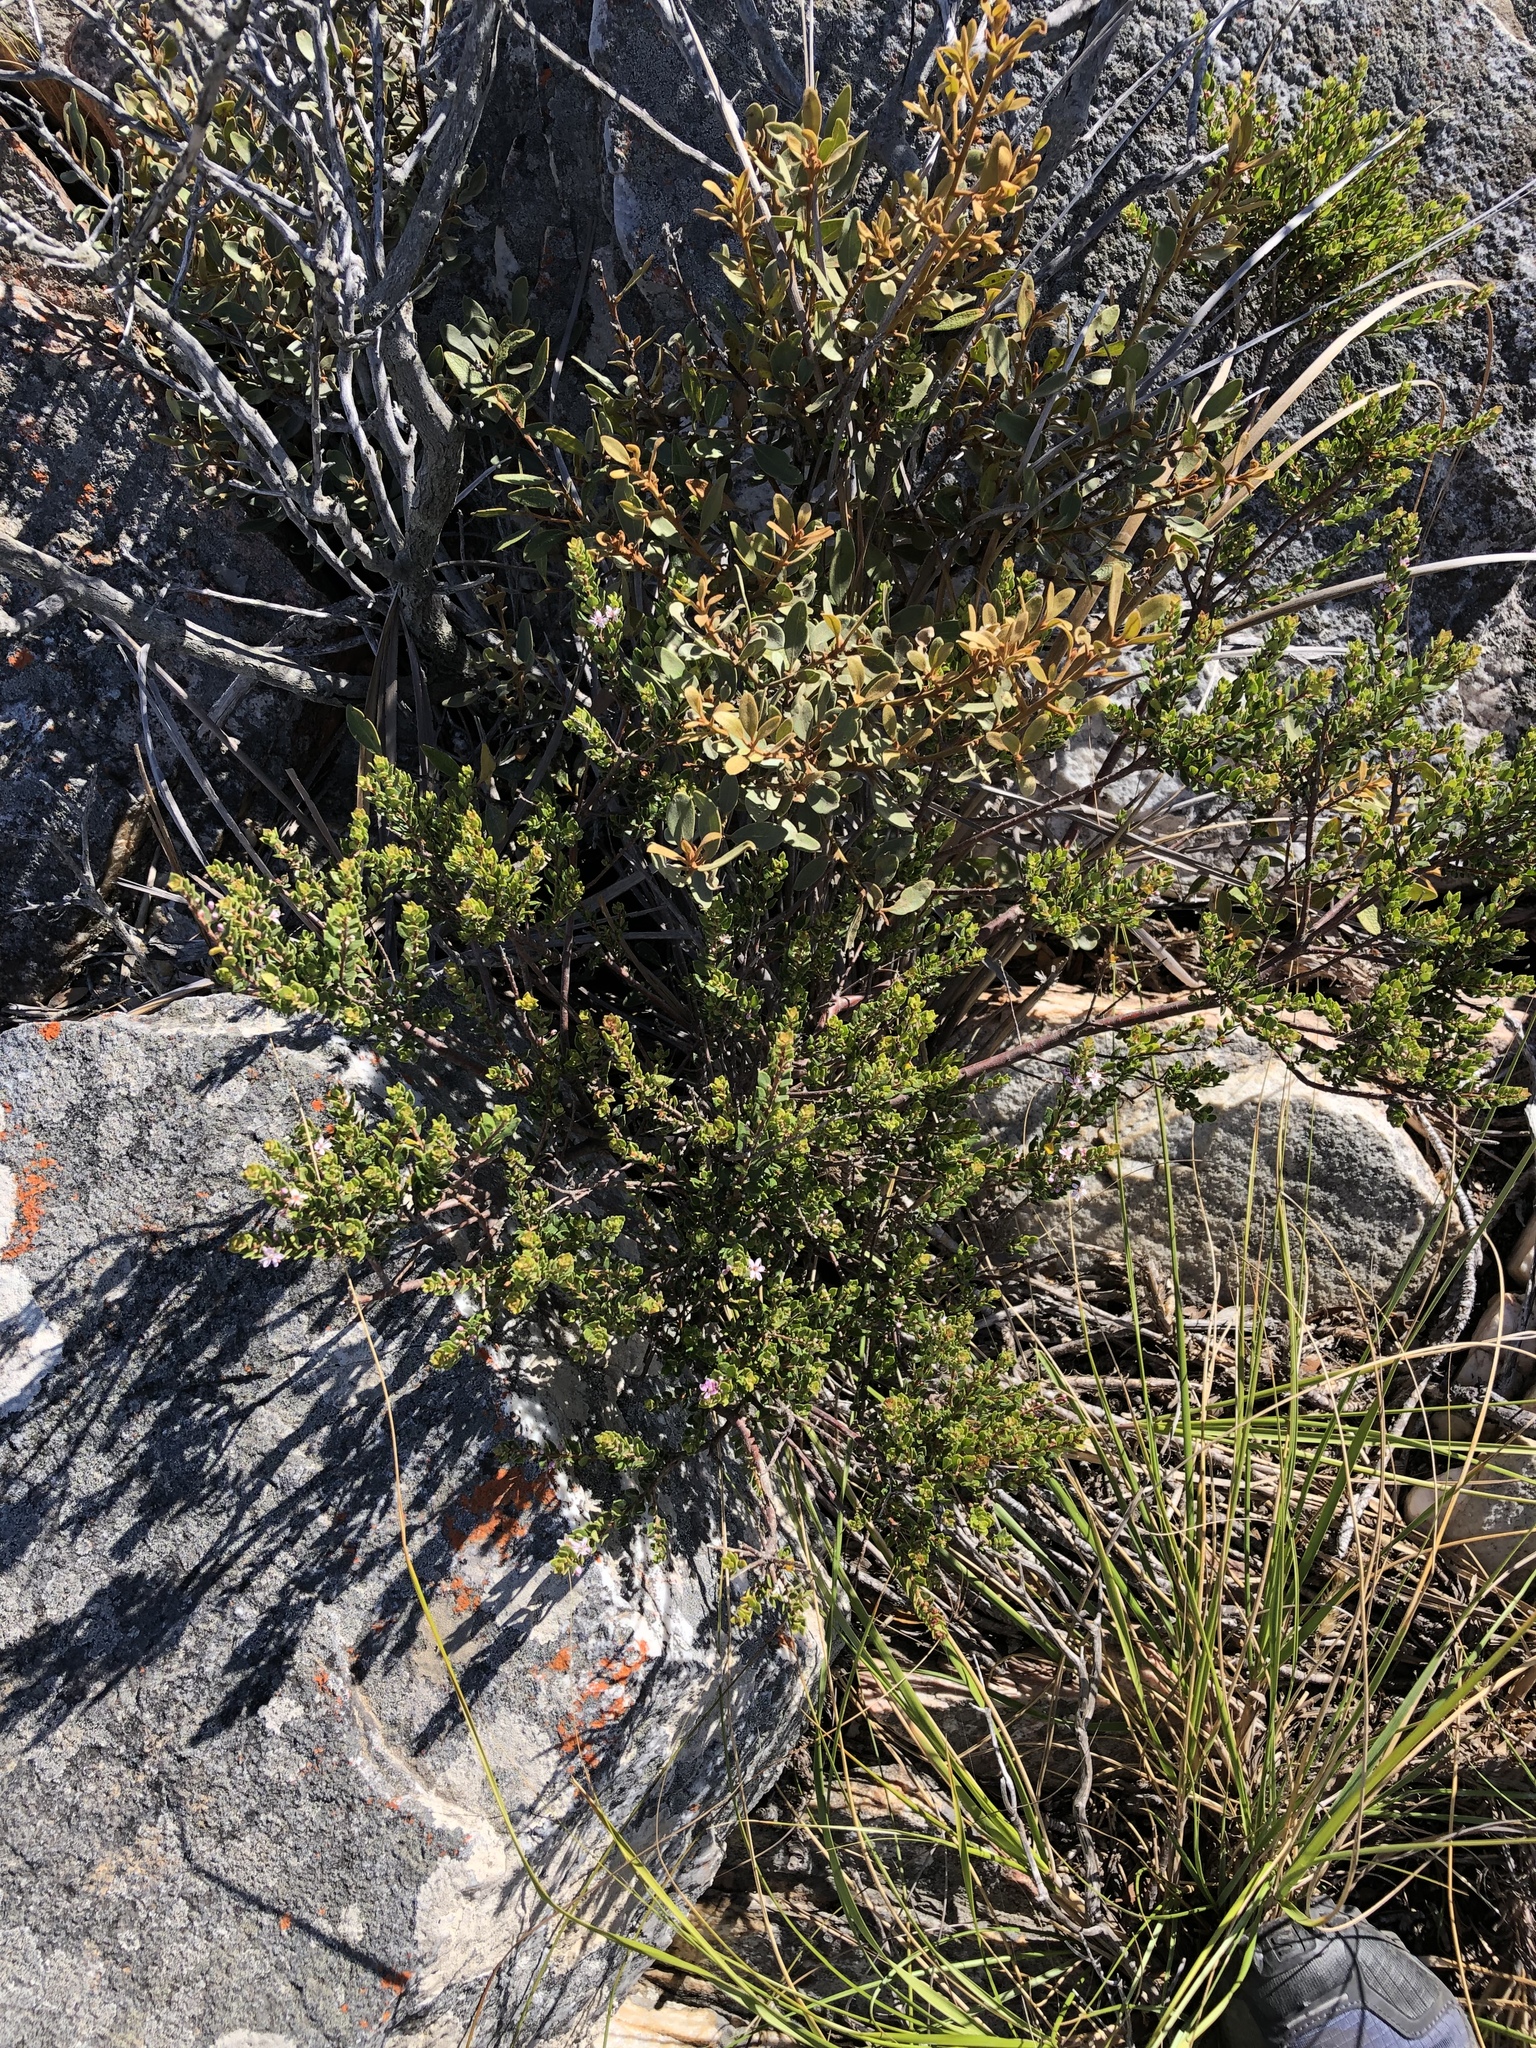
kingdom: Plantae
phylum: Tracheophyta
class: Magnoliopsida
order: Sapindales
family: Rutaceae
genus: Agathosma
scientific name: Agathosma ovata
